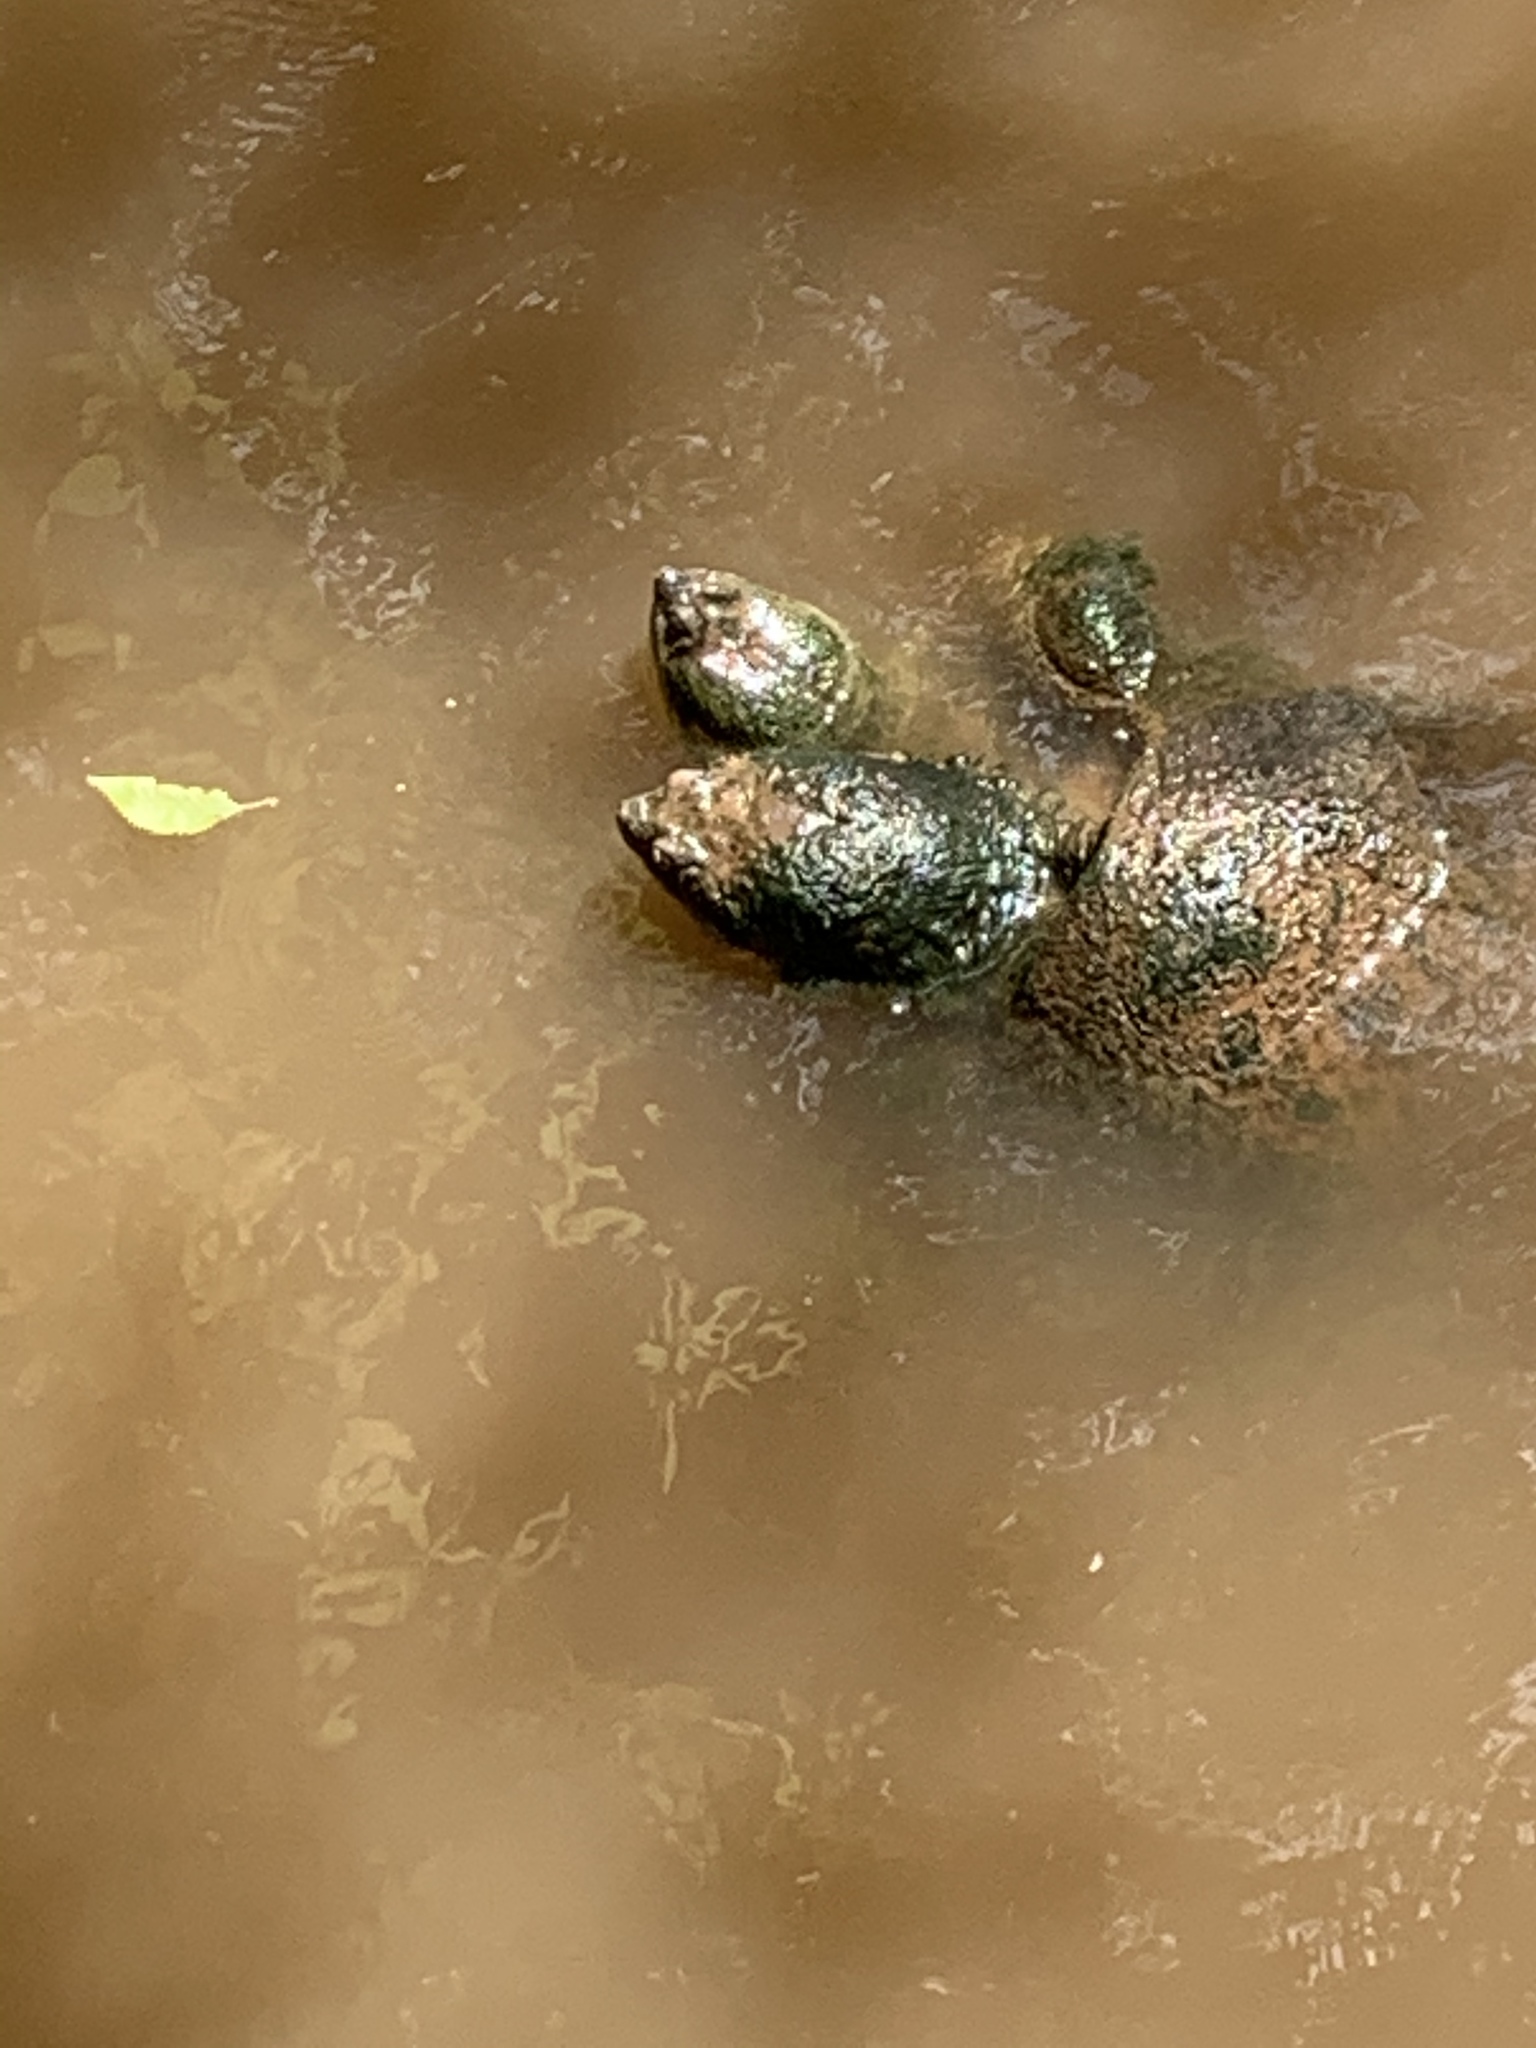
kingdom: Animalia
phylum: Chordata
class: Testudines
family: Chelydridae
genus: Chelydra
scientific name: Chelydra serpentina
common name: Common snapping turtle
